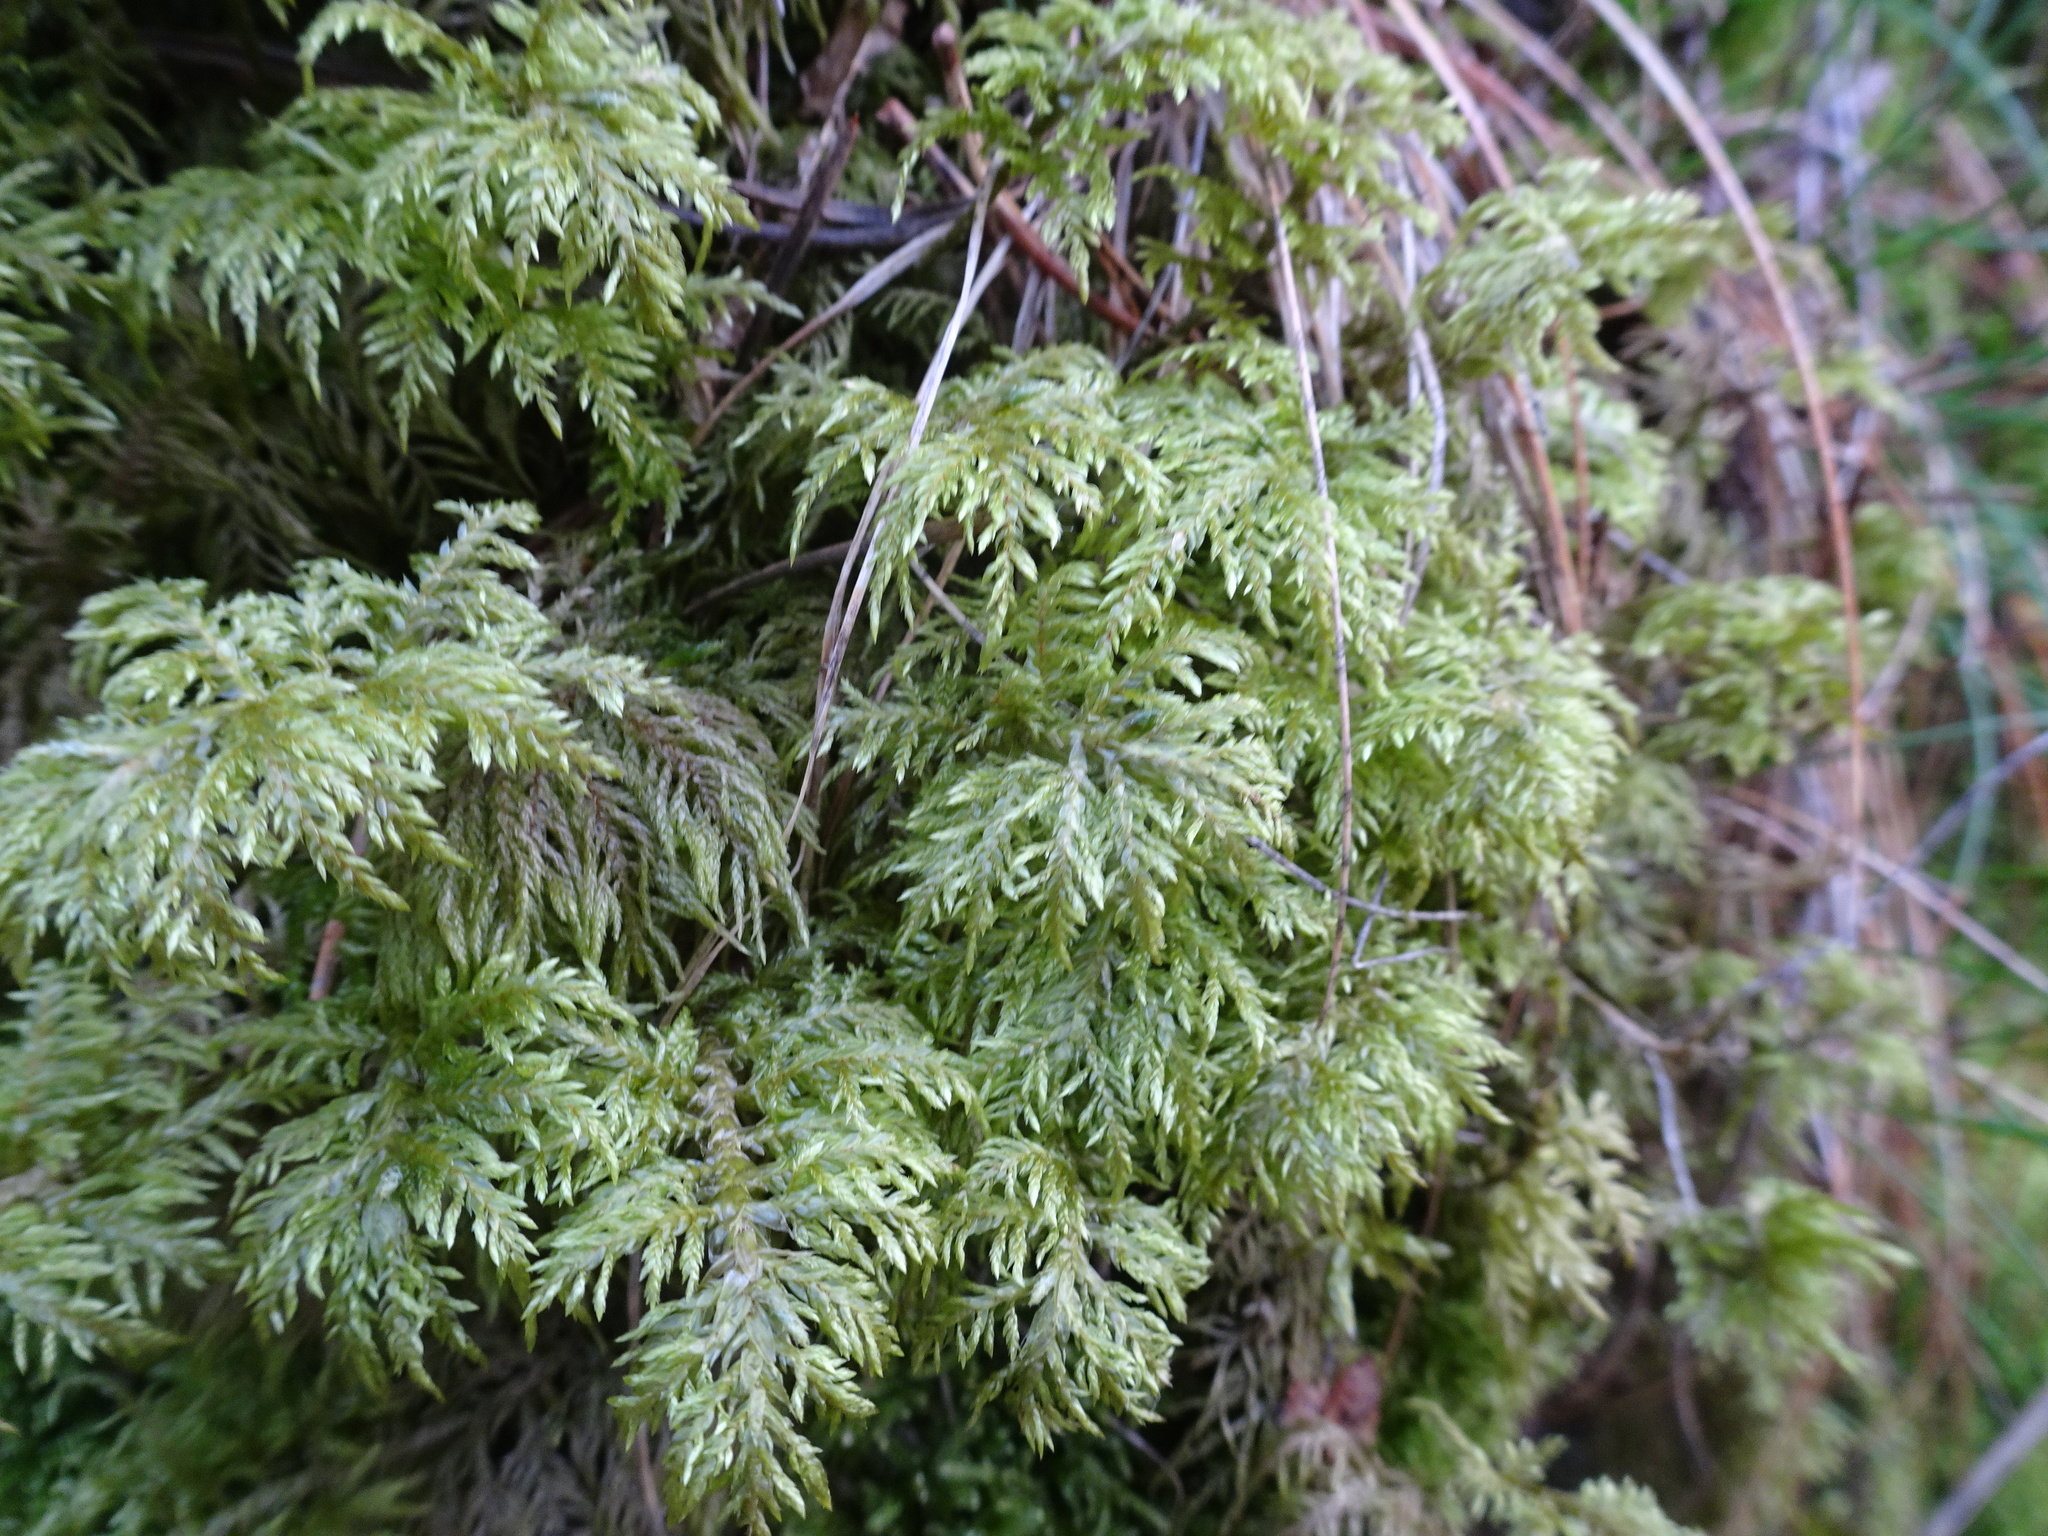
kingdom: Plantae
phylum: Bryophyta
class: Bryopsida
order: Hypnales
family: Hylocomiaceae
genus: Hylocomium
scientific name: Hylocomium splendens
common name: Stairstep moss
